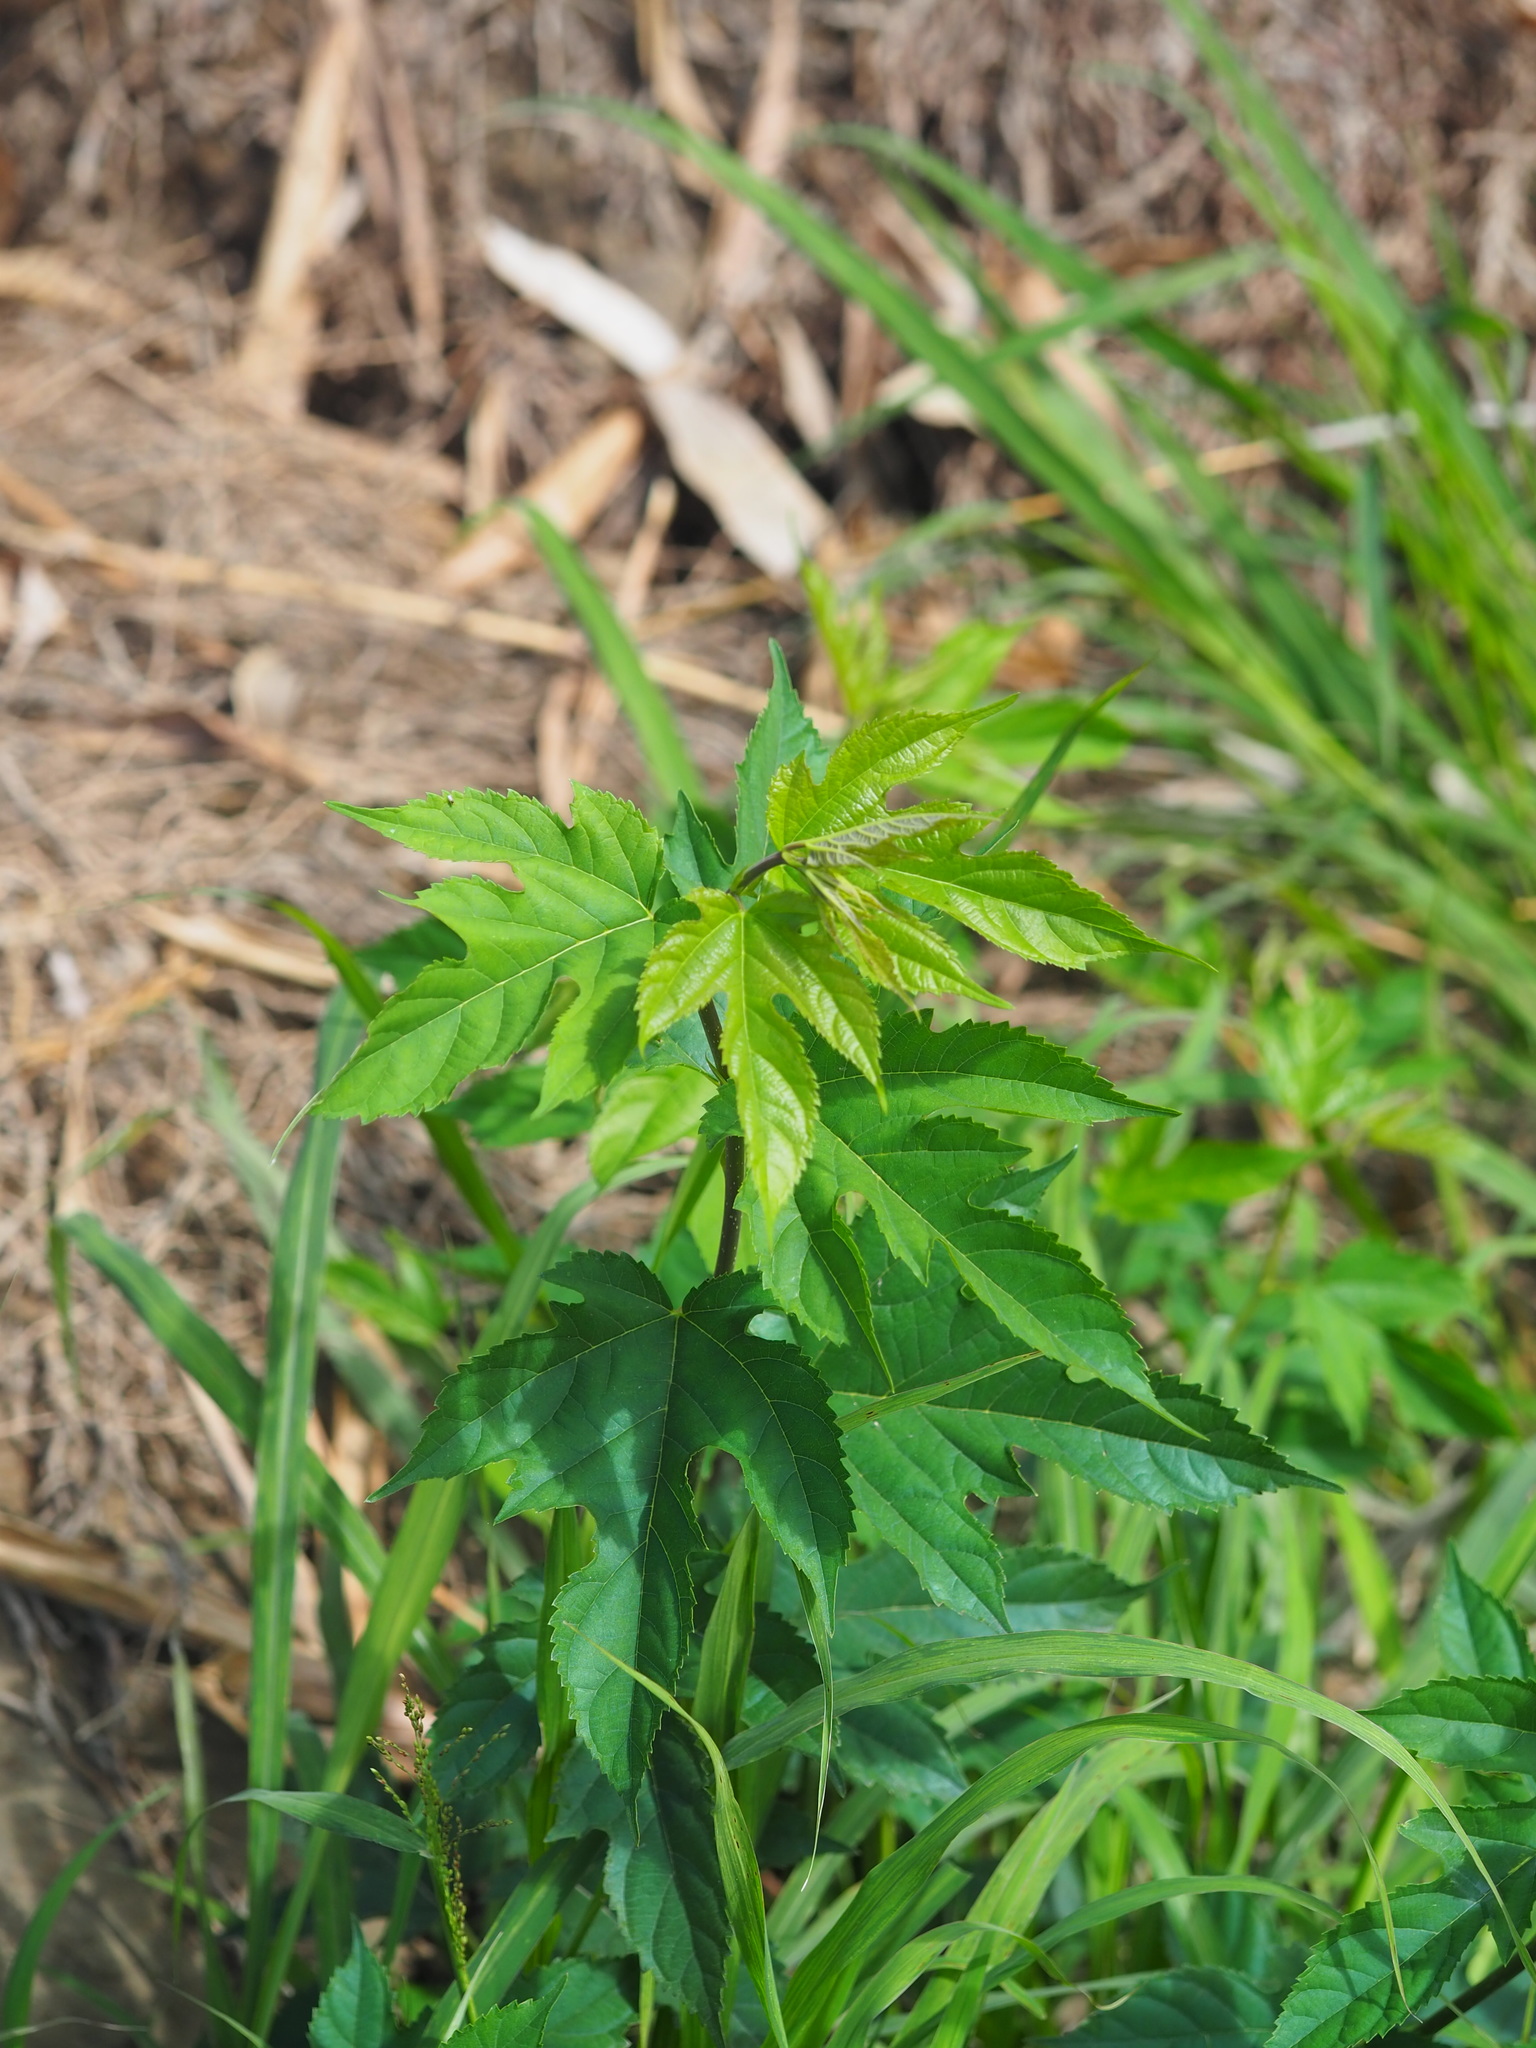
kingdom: Plantae
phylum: Tracheophyta
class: Magnoliopsida
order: Rosales
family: Moraceae
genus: Morus
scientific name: Morus indica
